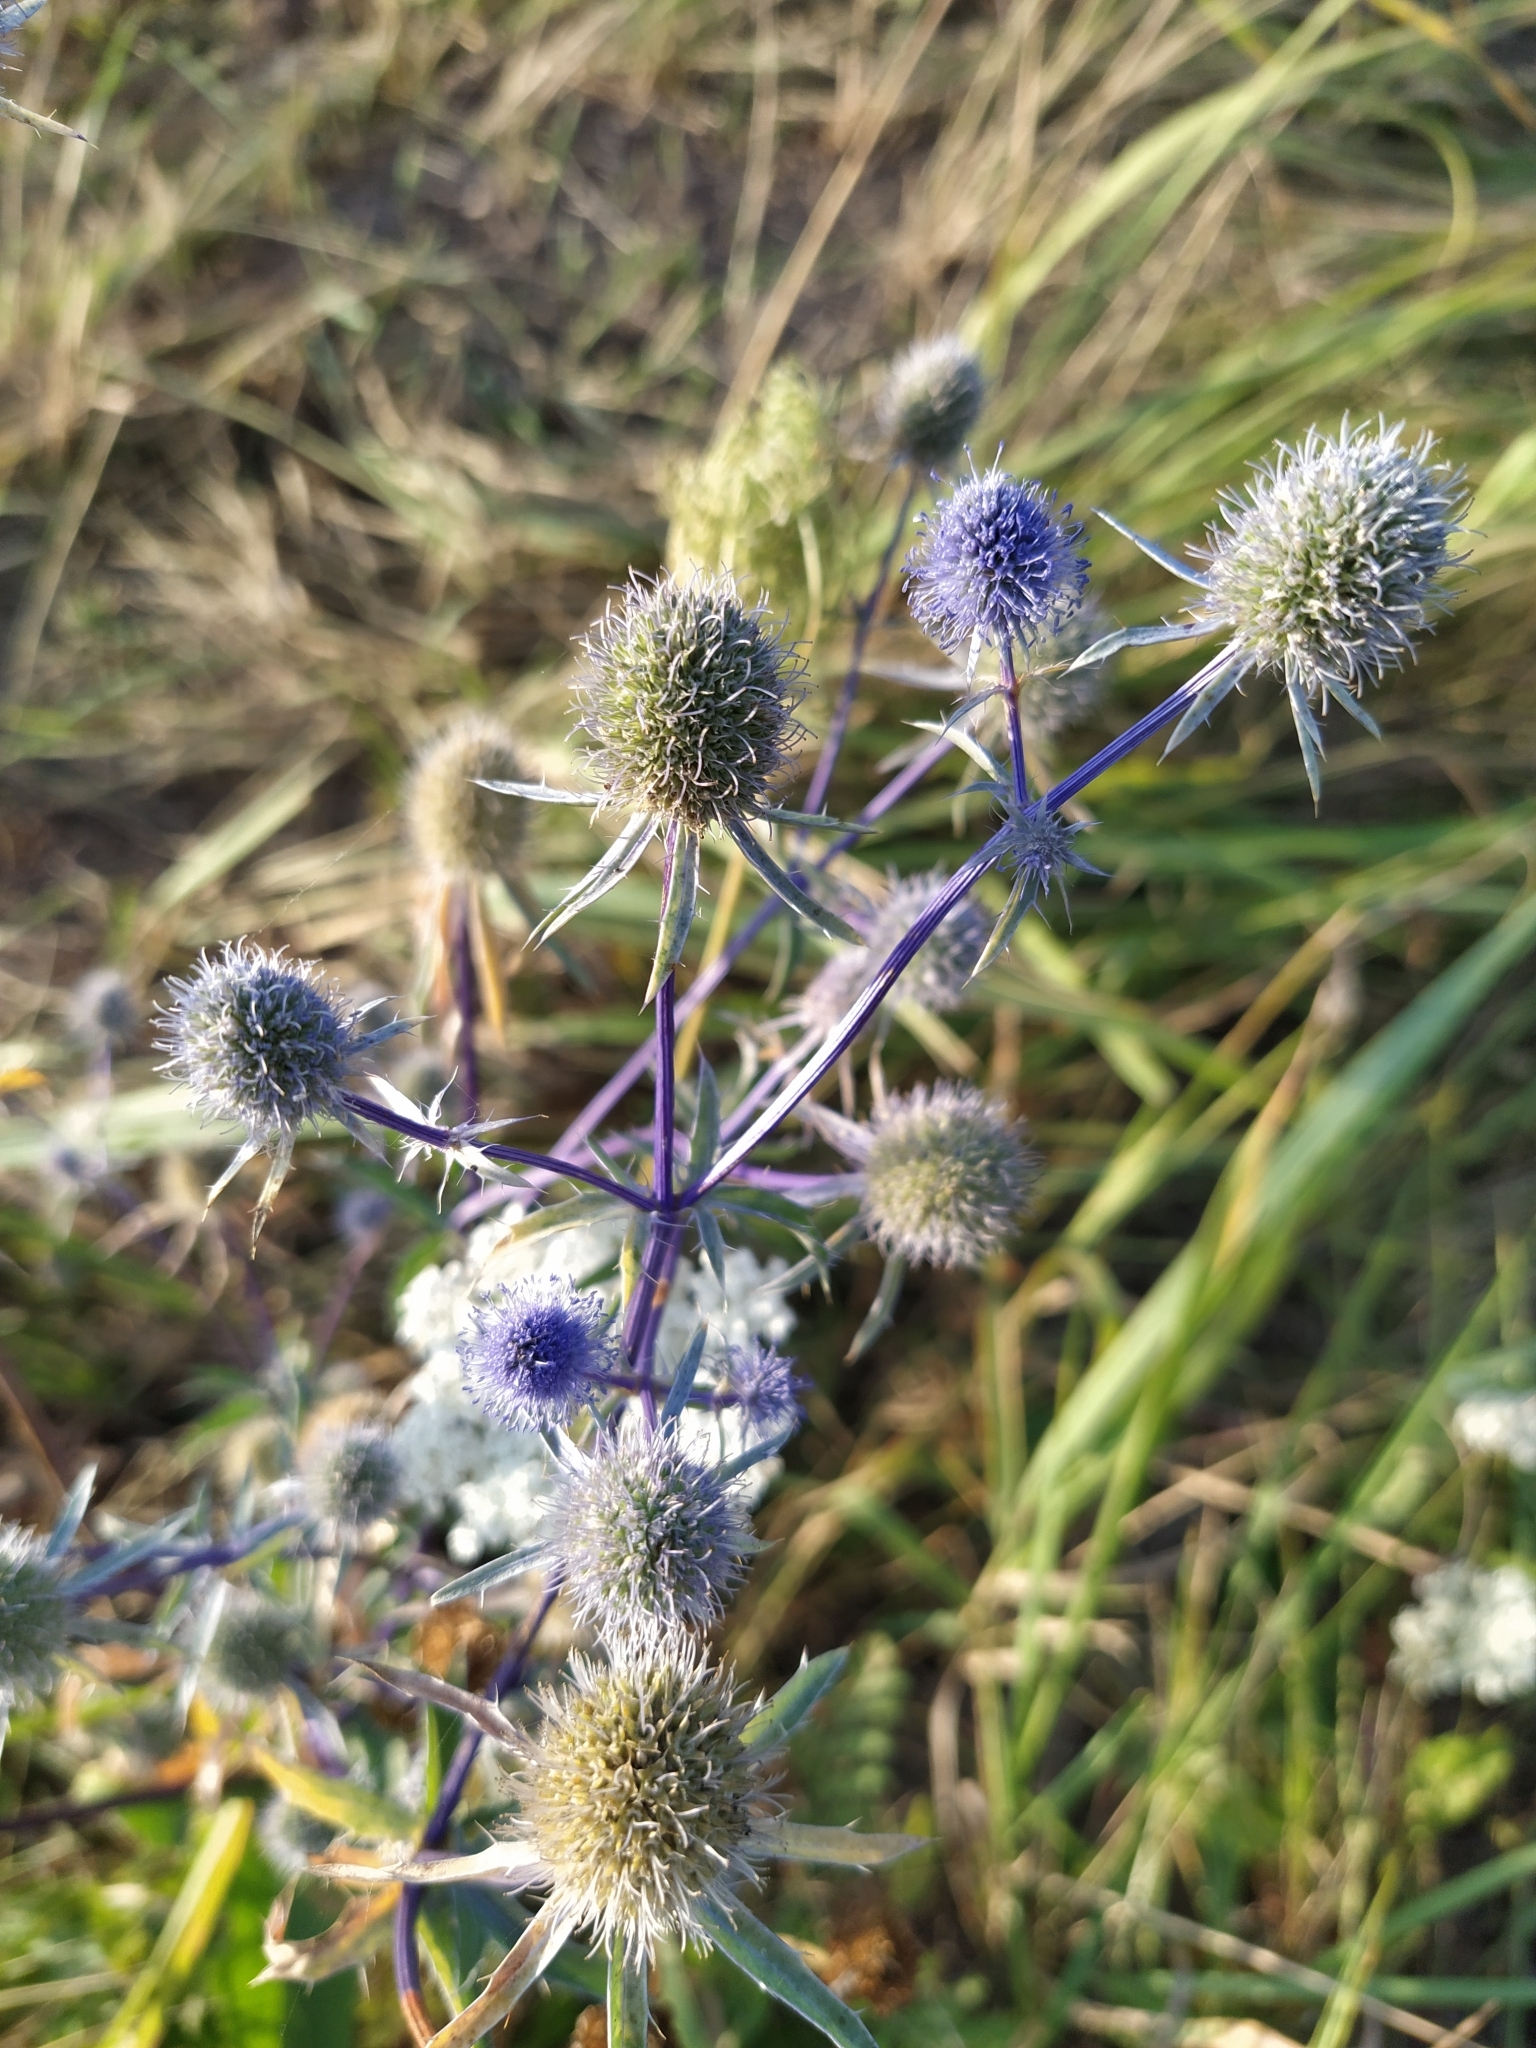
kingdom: Plantae
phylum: Tracheophyta
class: Magnoliopsida
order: Apiales
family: Apiaceae
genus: Eryngium
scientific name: Eryngium planum
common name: Blue eryngo
